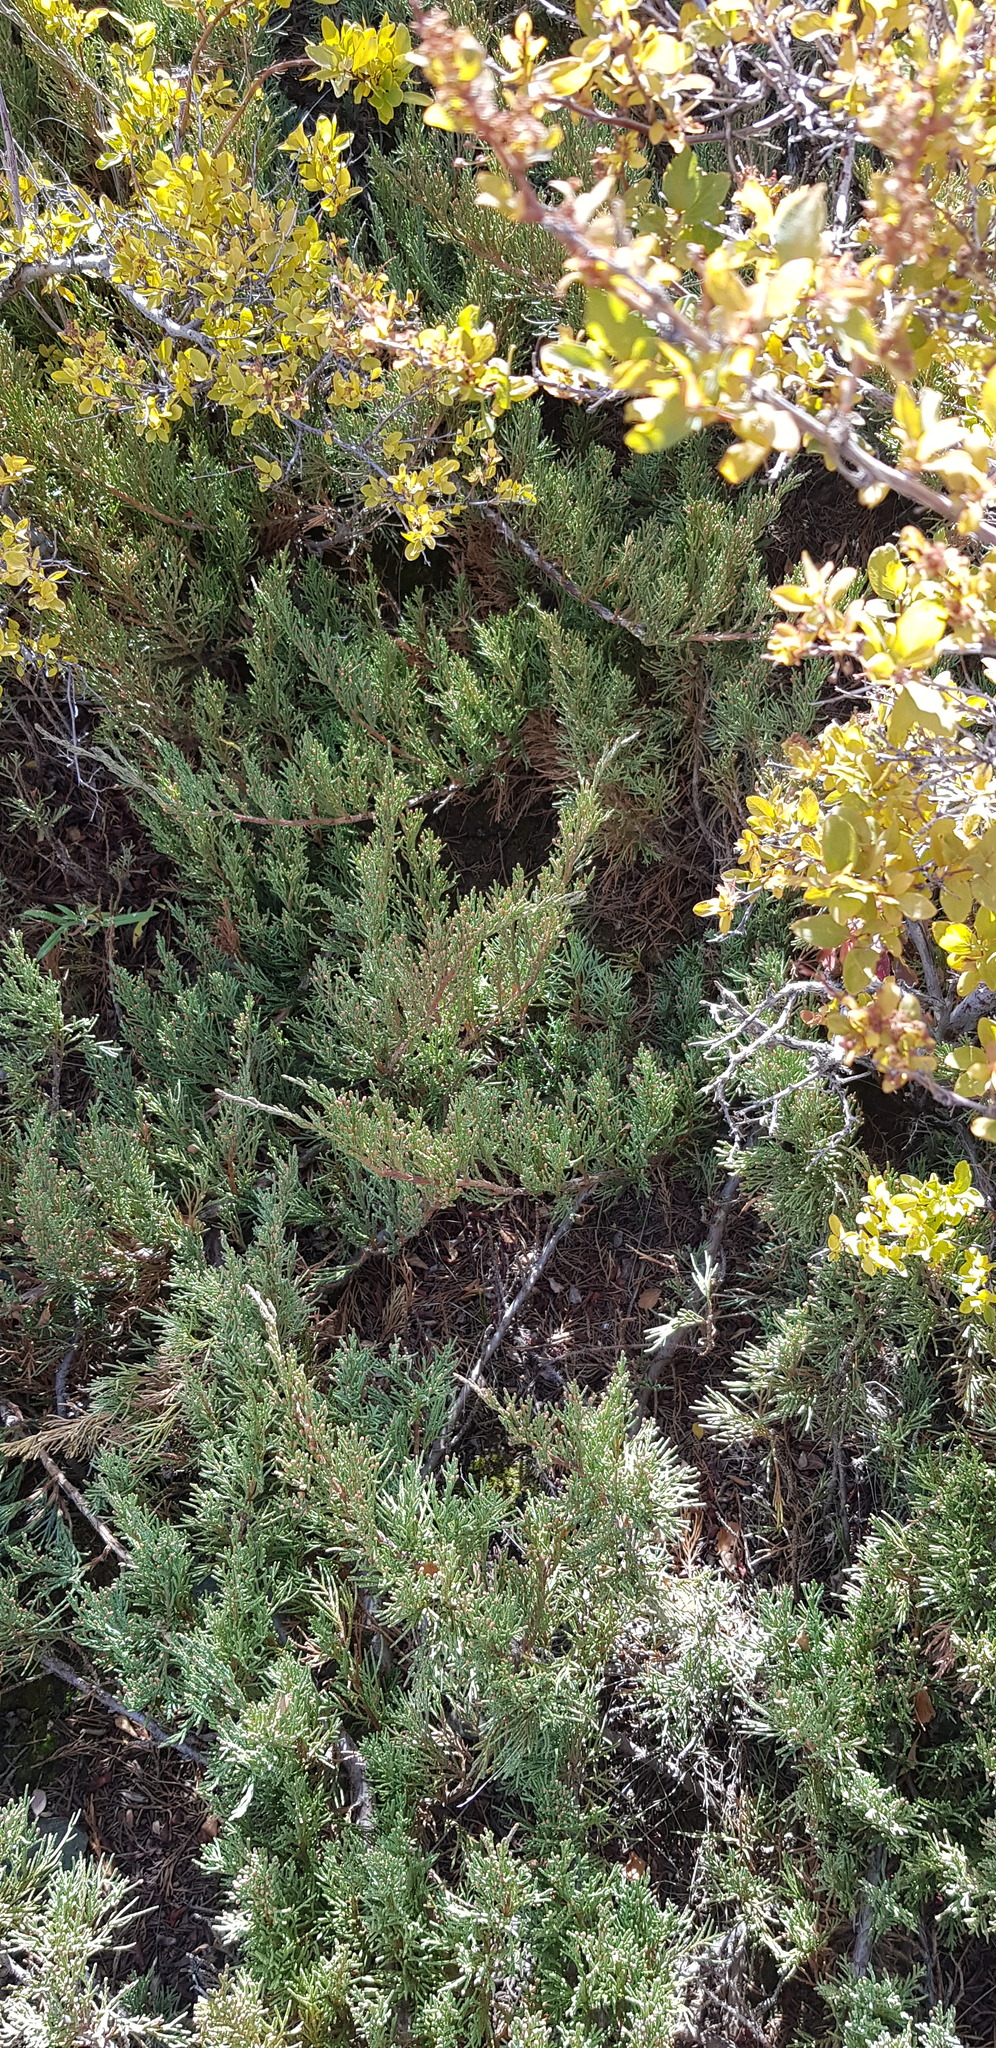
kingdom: Plantae
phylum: Tracheophyta
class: Pinopsida
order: Pinales
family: Cupressaceae
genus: Juniperus
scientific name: Juniperus sabina
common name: Savin
